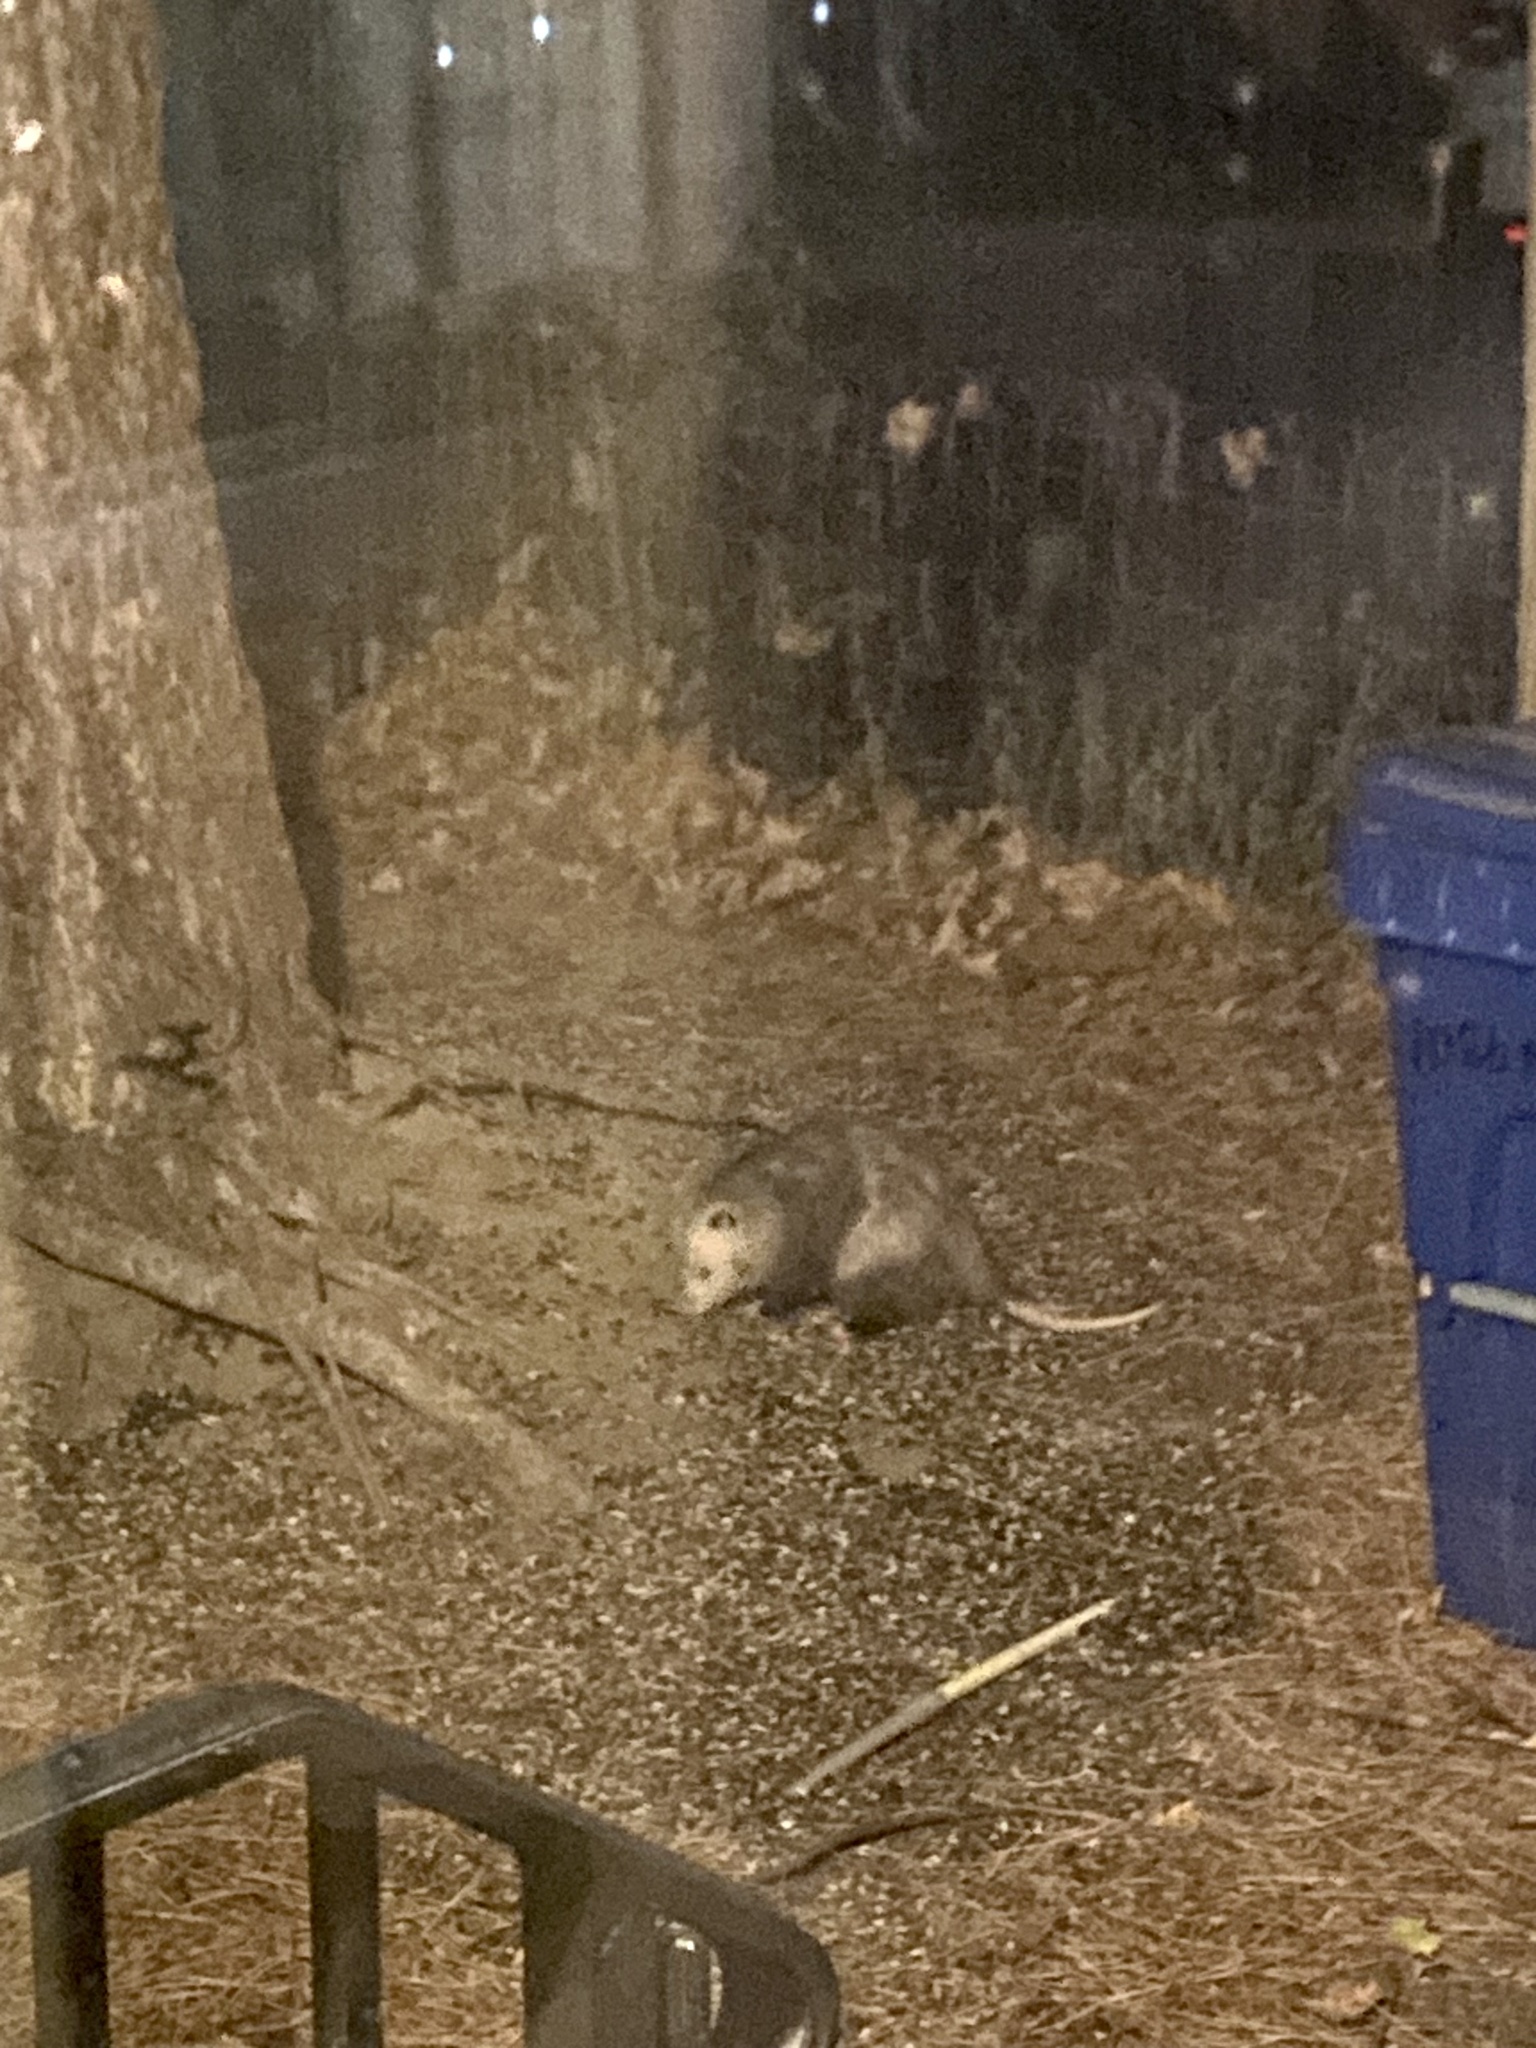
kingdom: Animalia
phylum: Chordata
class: Mammalia
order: Didelphimorphia
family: Didelphidae
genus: Didelphis
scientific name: Didelphis virginiana
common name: Virginia opossum
